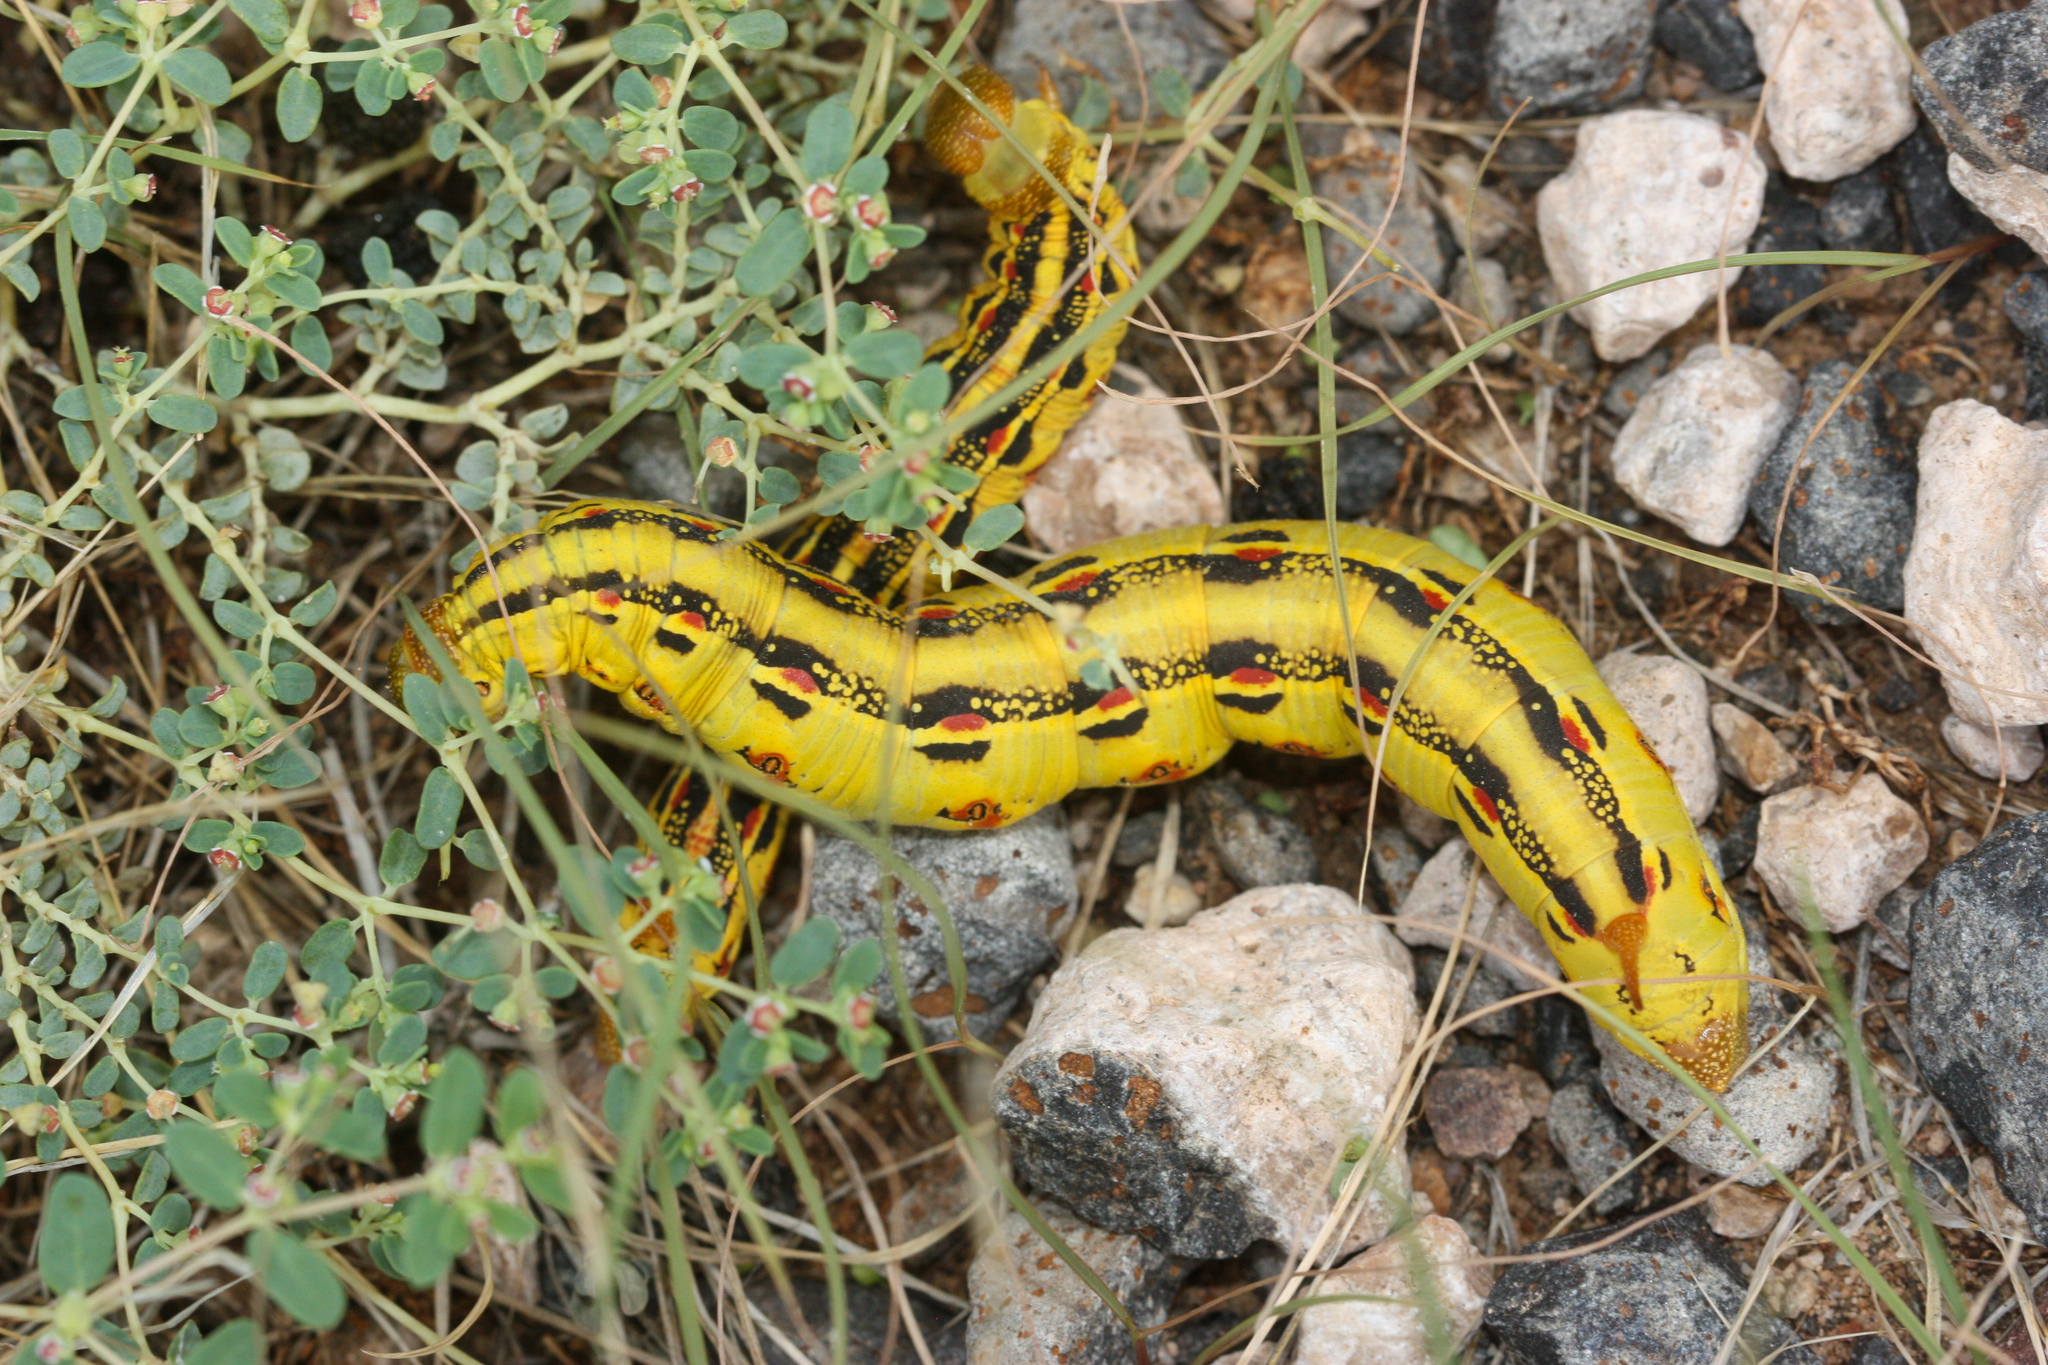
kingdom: Animalia
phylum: Arthropoda
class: Insecta
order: Lepidoptera
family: Sphingidae
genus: Hyles
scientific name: Hyles lineata
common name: White-lined sphinx
